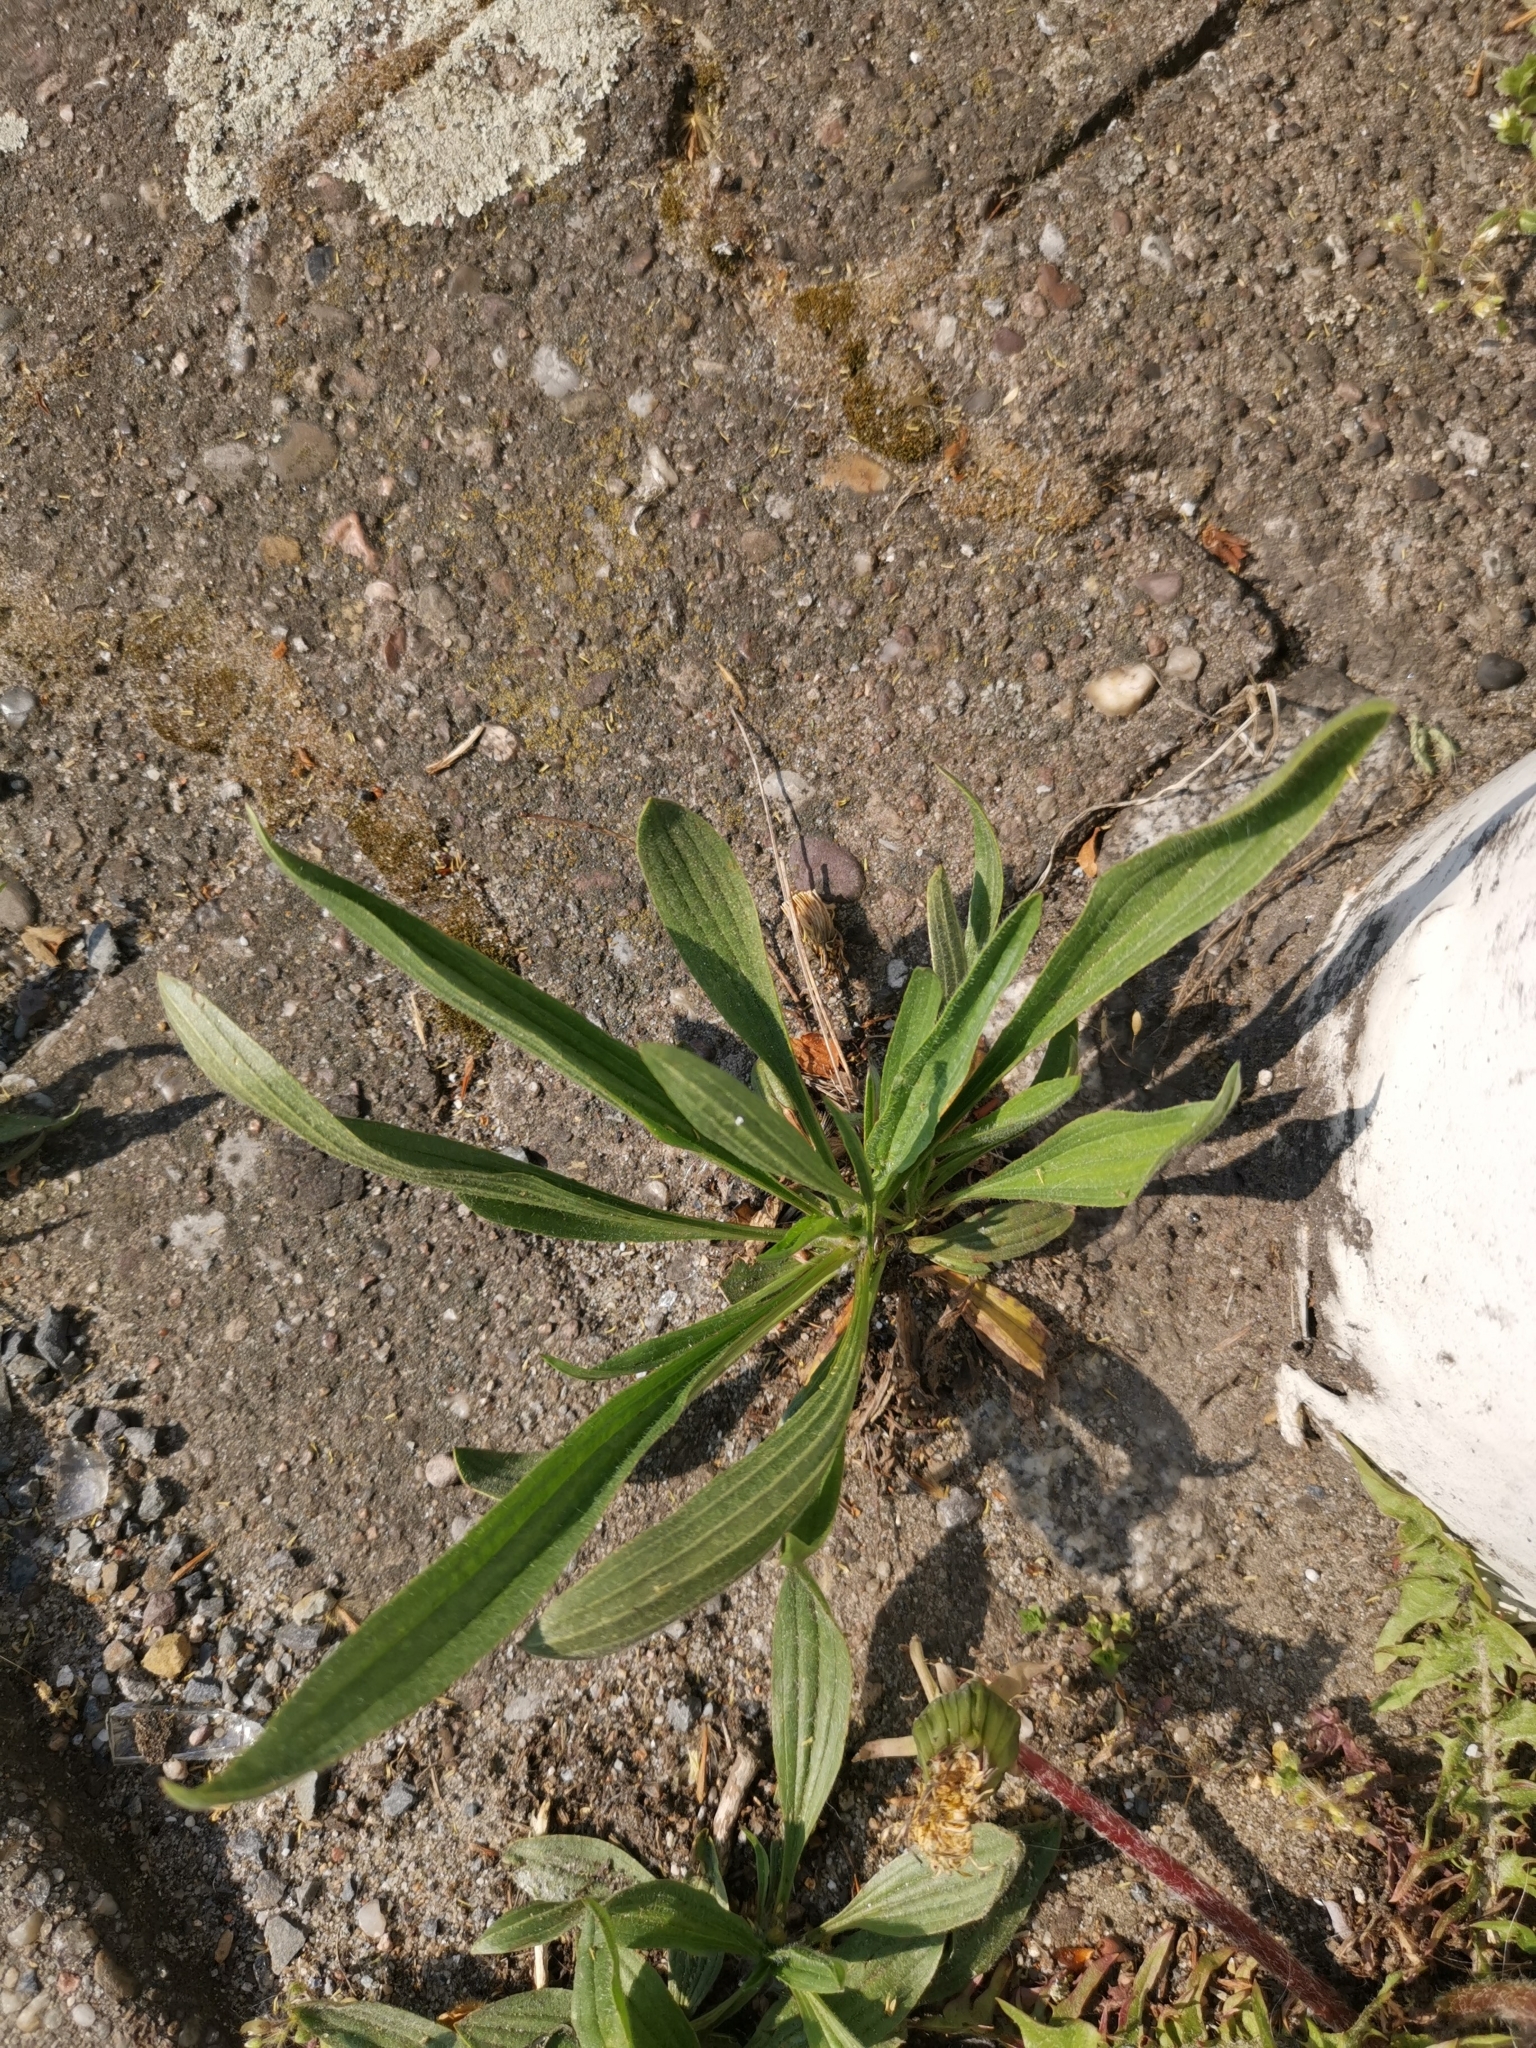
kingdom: Plantae
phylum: Tracheophyta
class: Magnoliopsida
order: Lamiales
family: Plantaginaceae
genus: Plantago
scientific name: Plantago lanceolata
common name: Ribwort plantain
